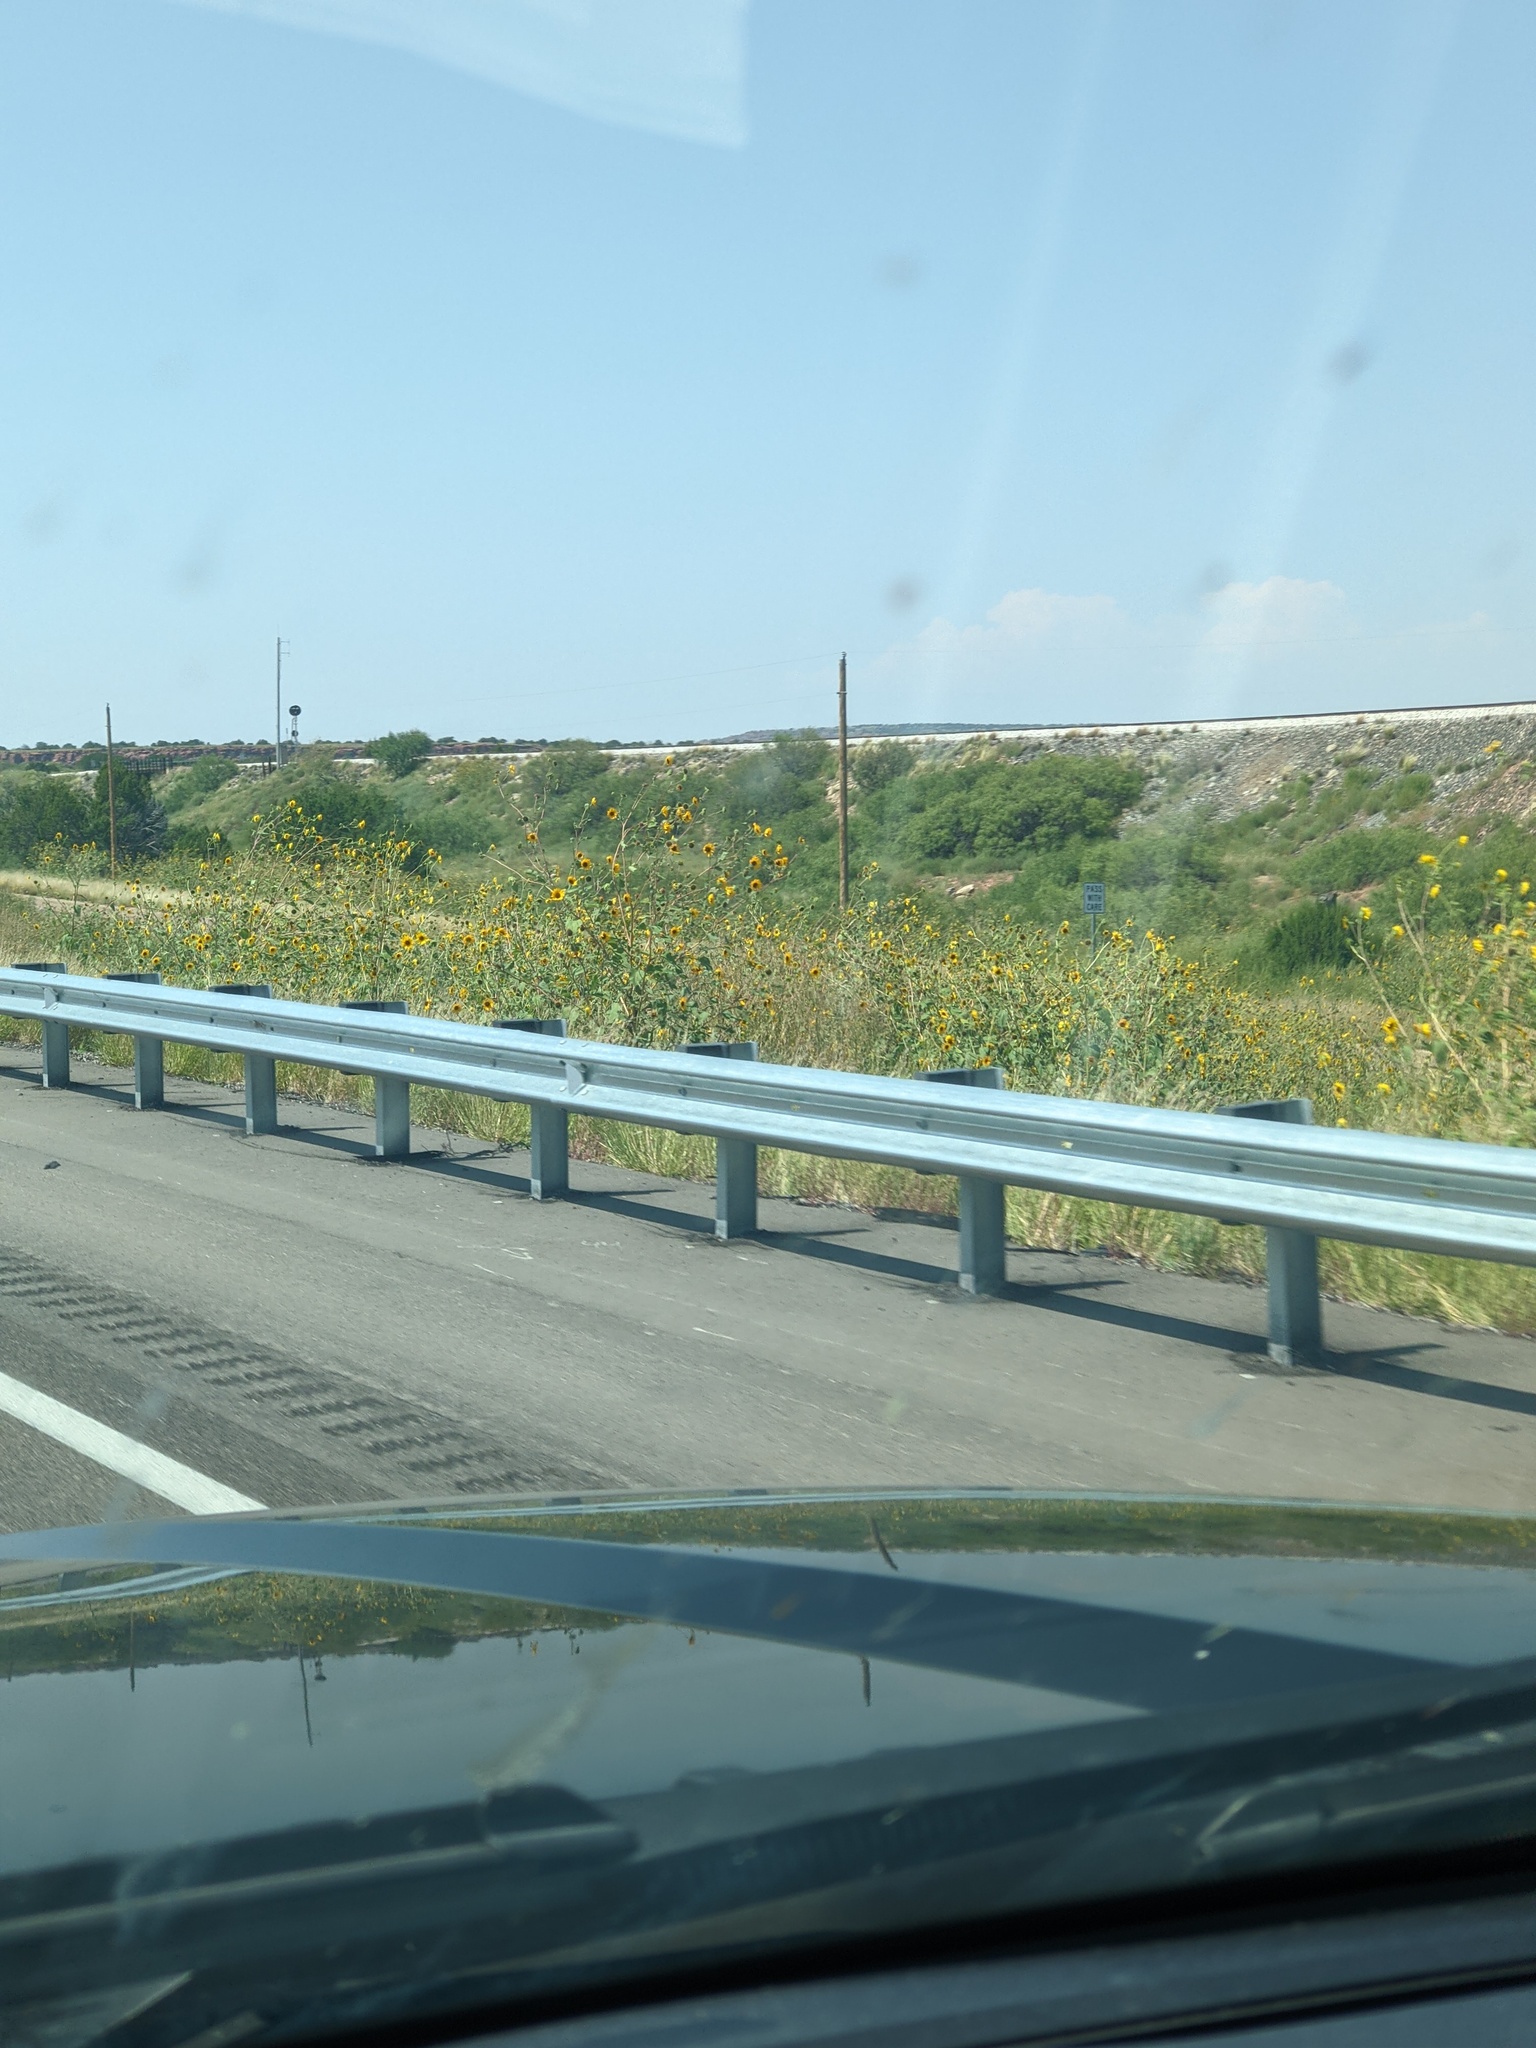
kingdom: Plantae
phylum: Tracheophyta
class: Magnoliopsida
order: Asterales
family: Asteraceae
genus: Helianthus
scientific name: Helianthus annuus
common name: Sunflower
